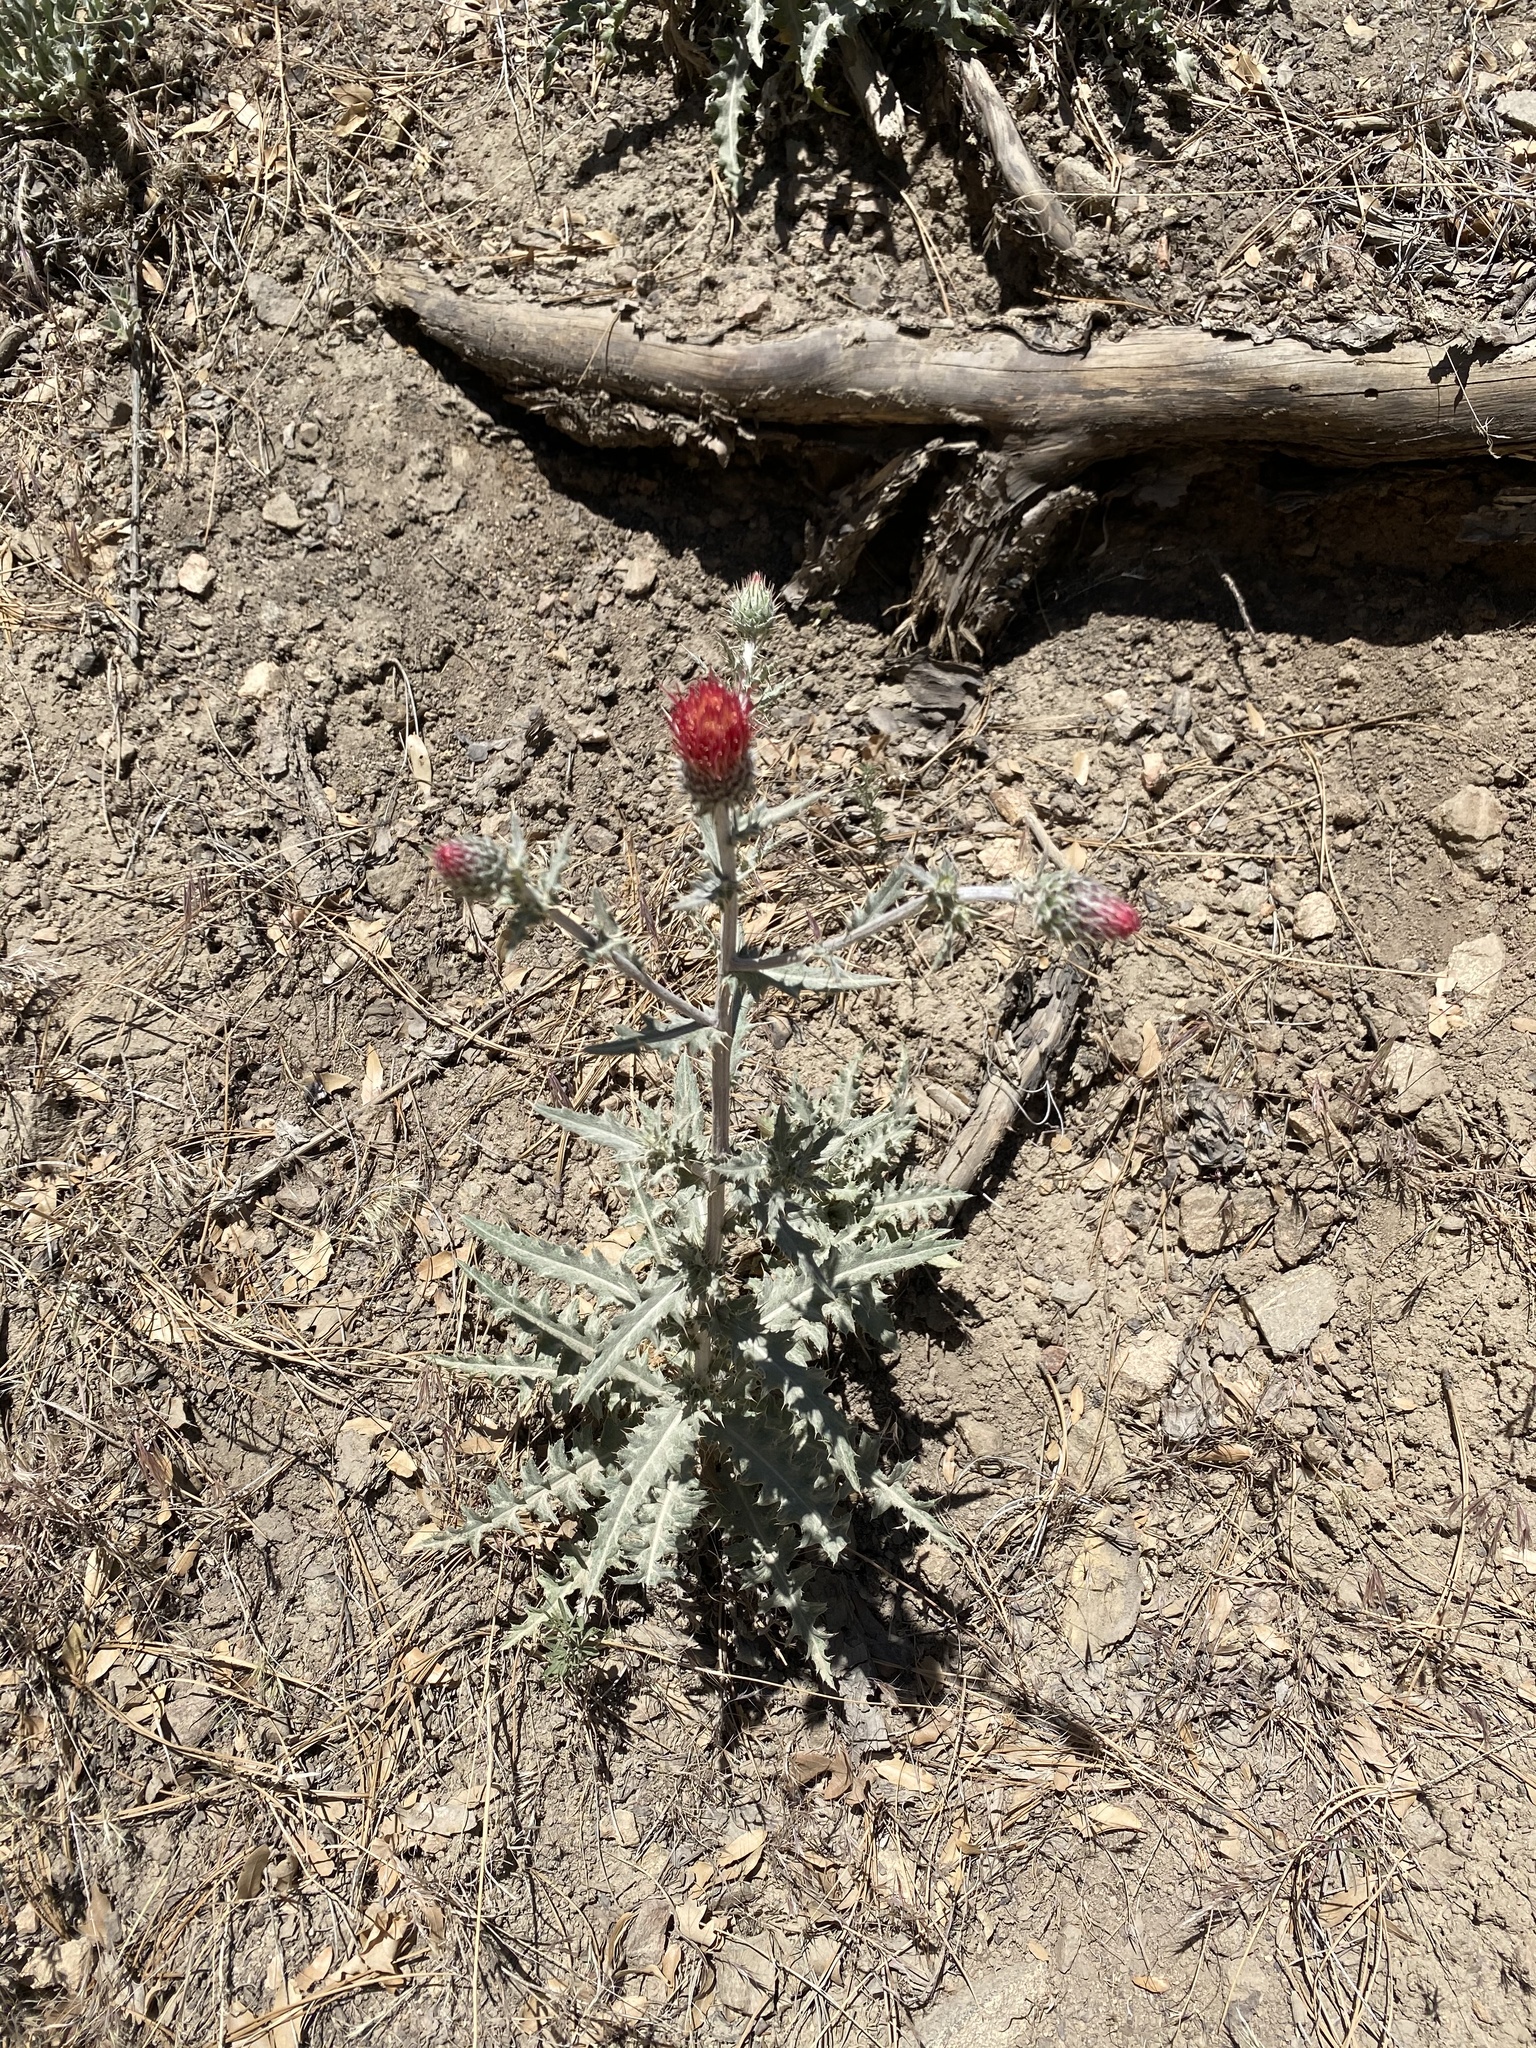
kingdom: Plantae
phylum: Tracheophyta
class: Magnoliopsida
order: Asterales
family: Asteraceae
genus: Cirsium
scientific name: Cirsium arizonicum
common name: Arizona thistle
